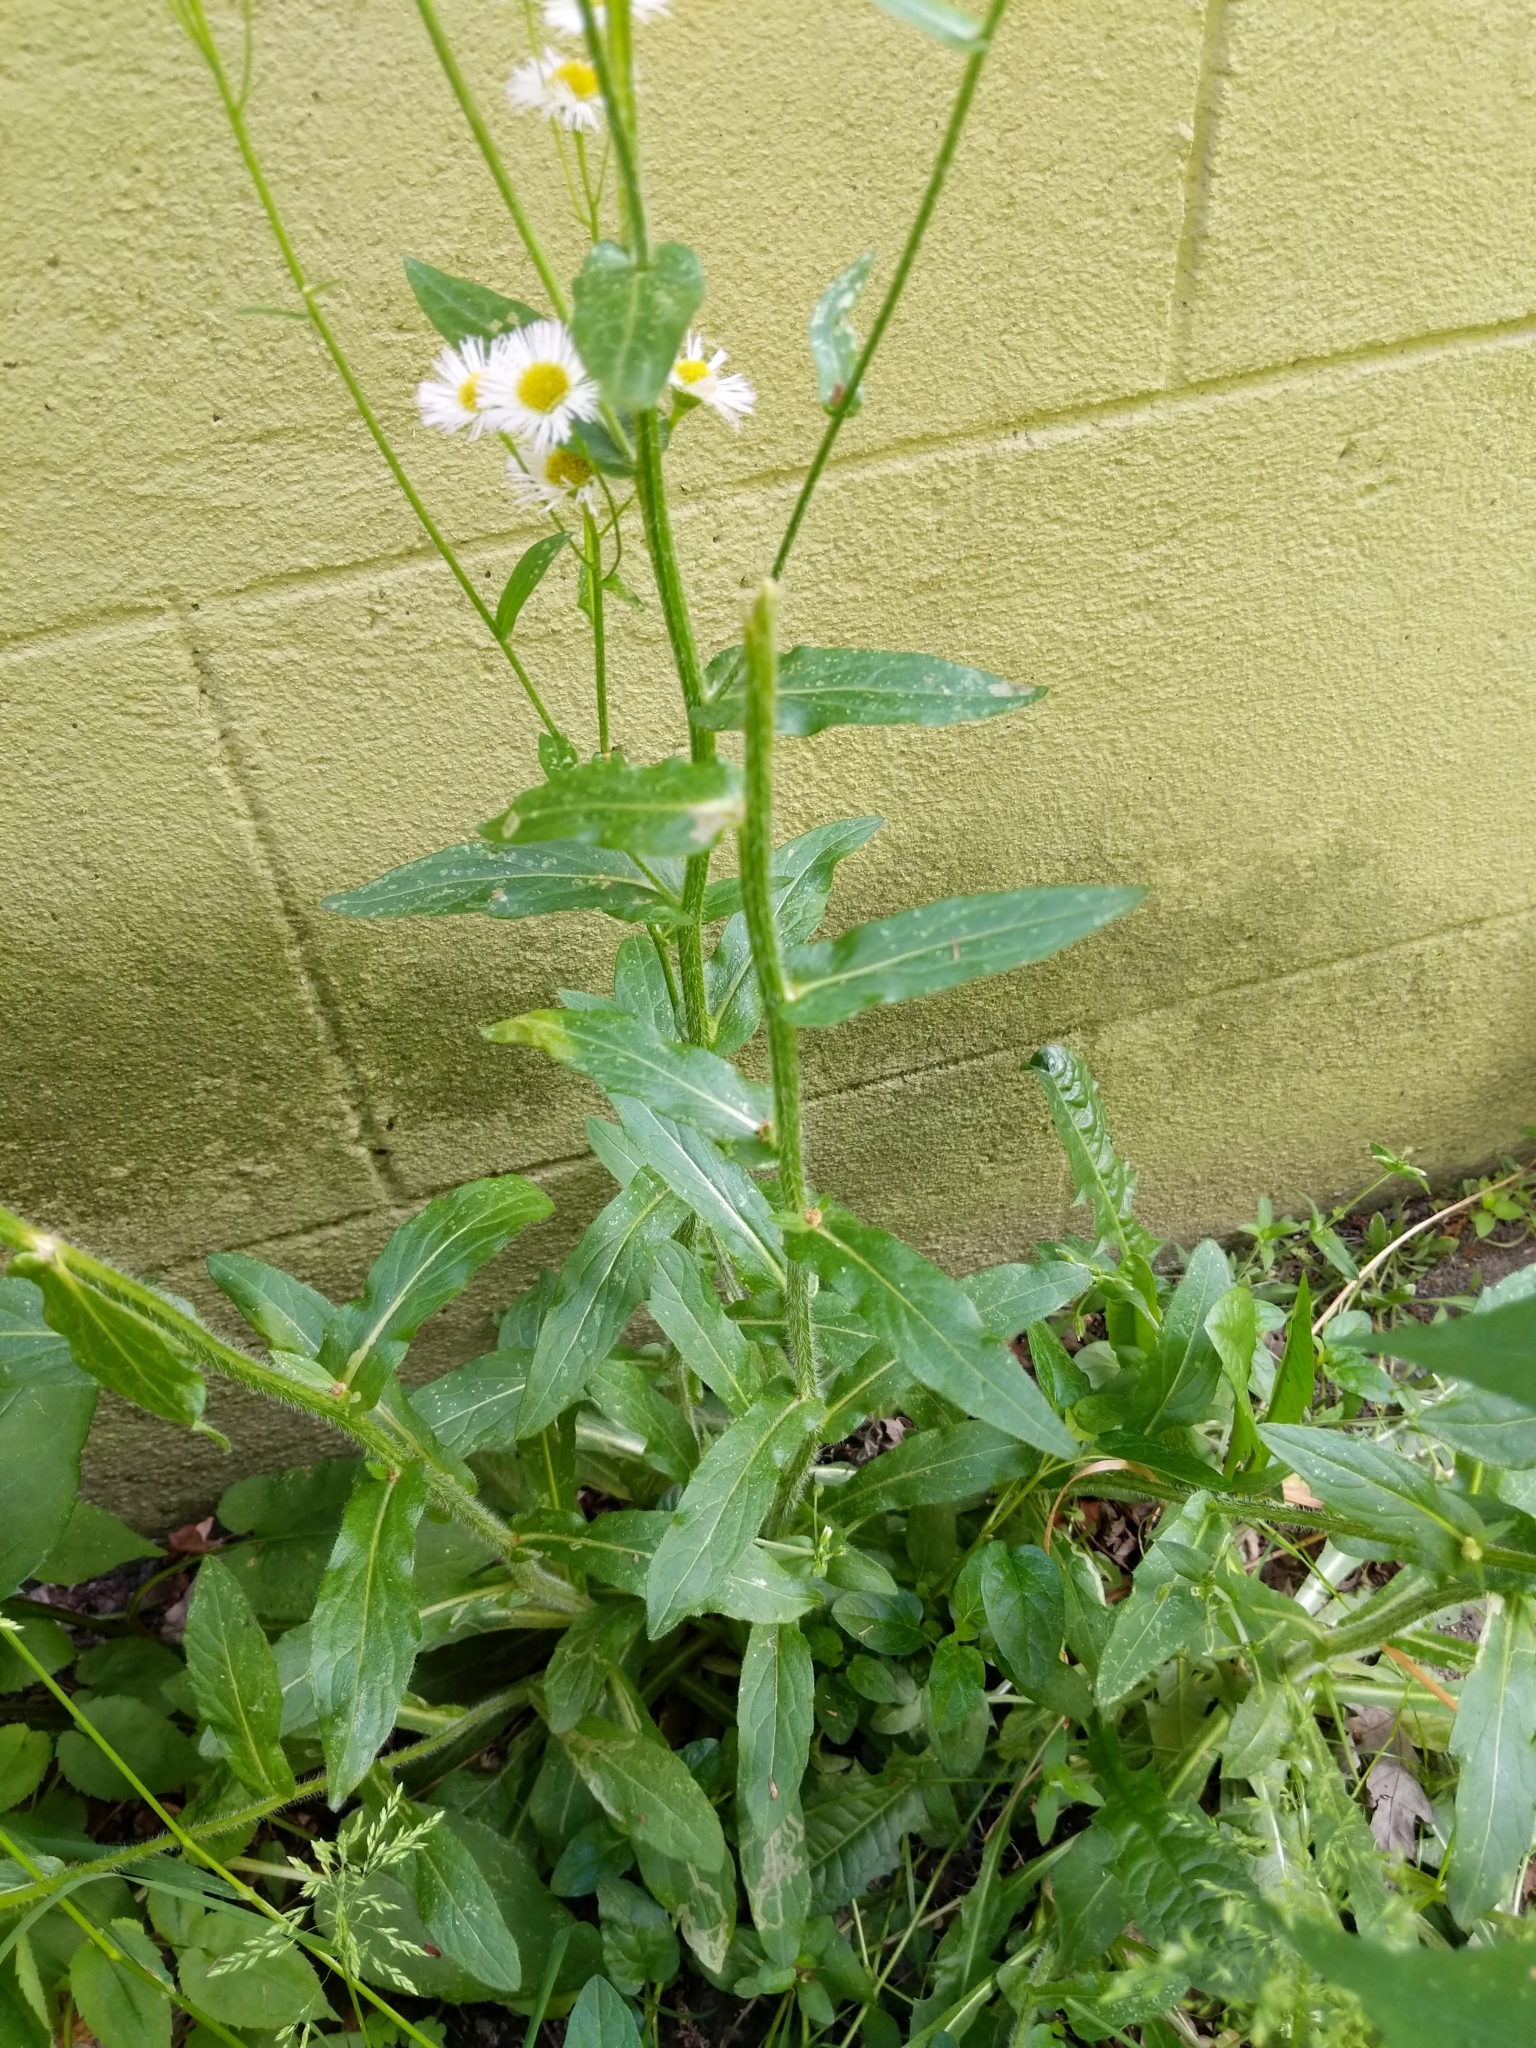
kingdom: Plantae
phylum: Tracheophyta
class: Magnoliopsida
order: Asterales
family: Asteraceae
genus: Erigeron
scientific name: Erigeron philadelphicus
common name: Robin's-plantain
